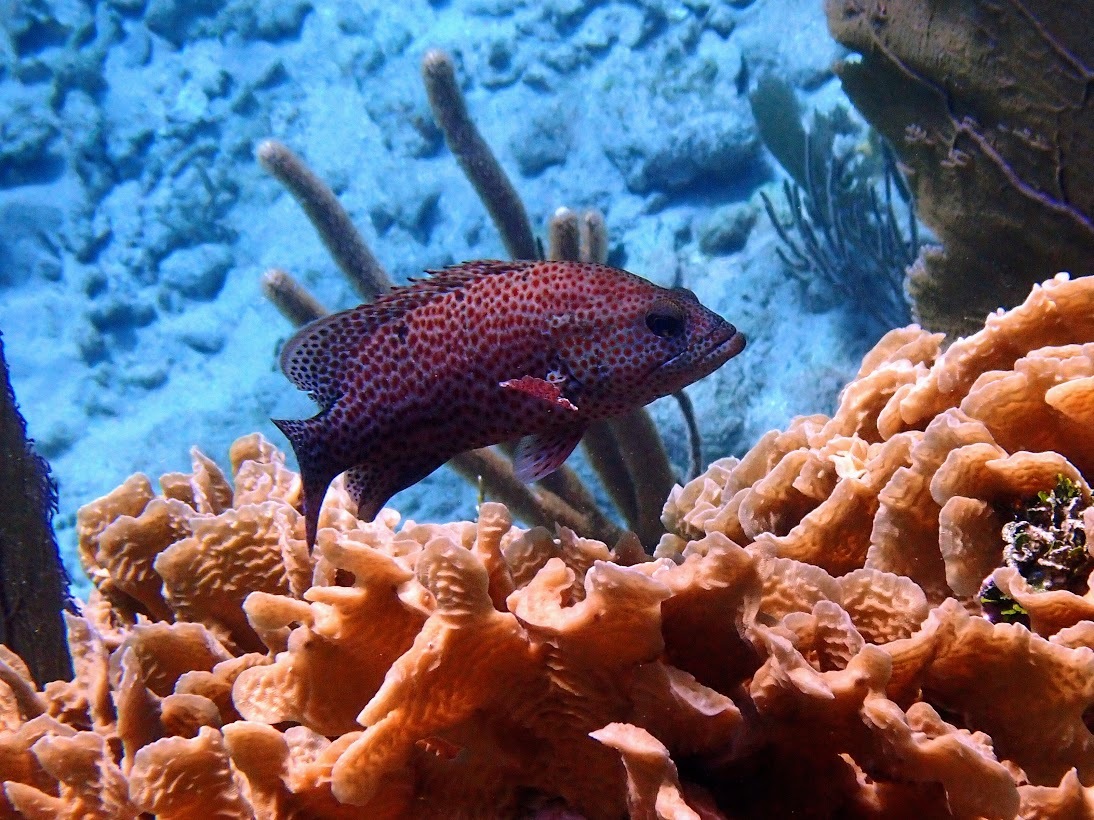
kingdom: Animalia
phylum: Chordata
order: Perciformes
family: Serranidae
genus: Cephalopholis
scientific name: Cephalopholis cruentata
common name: Graysby
